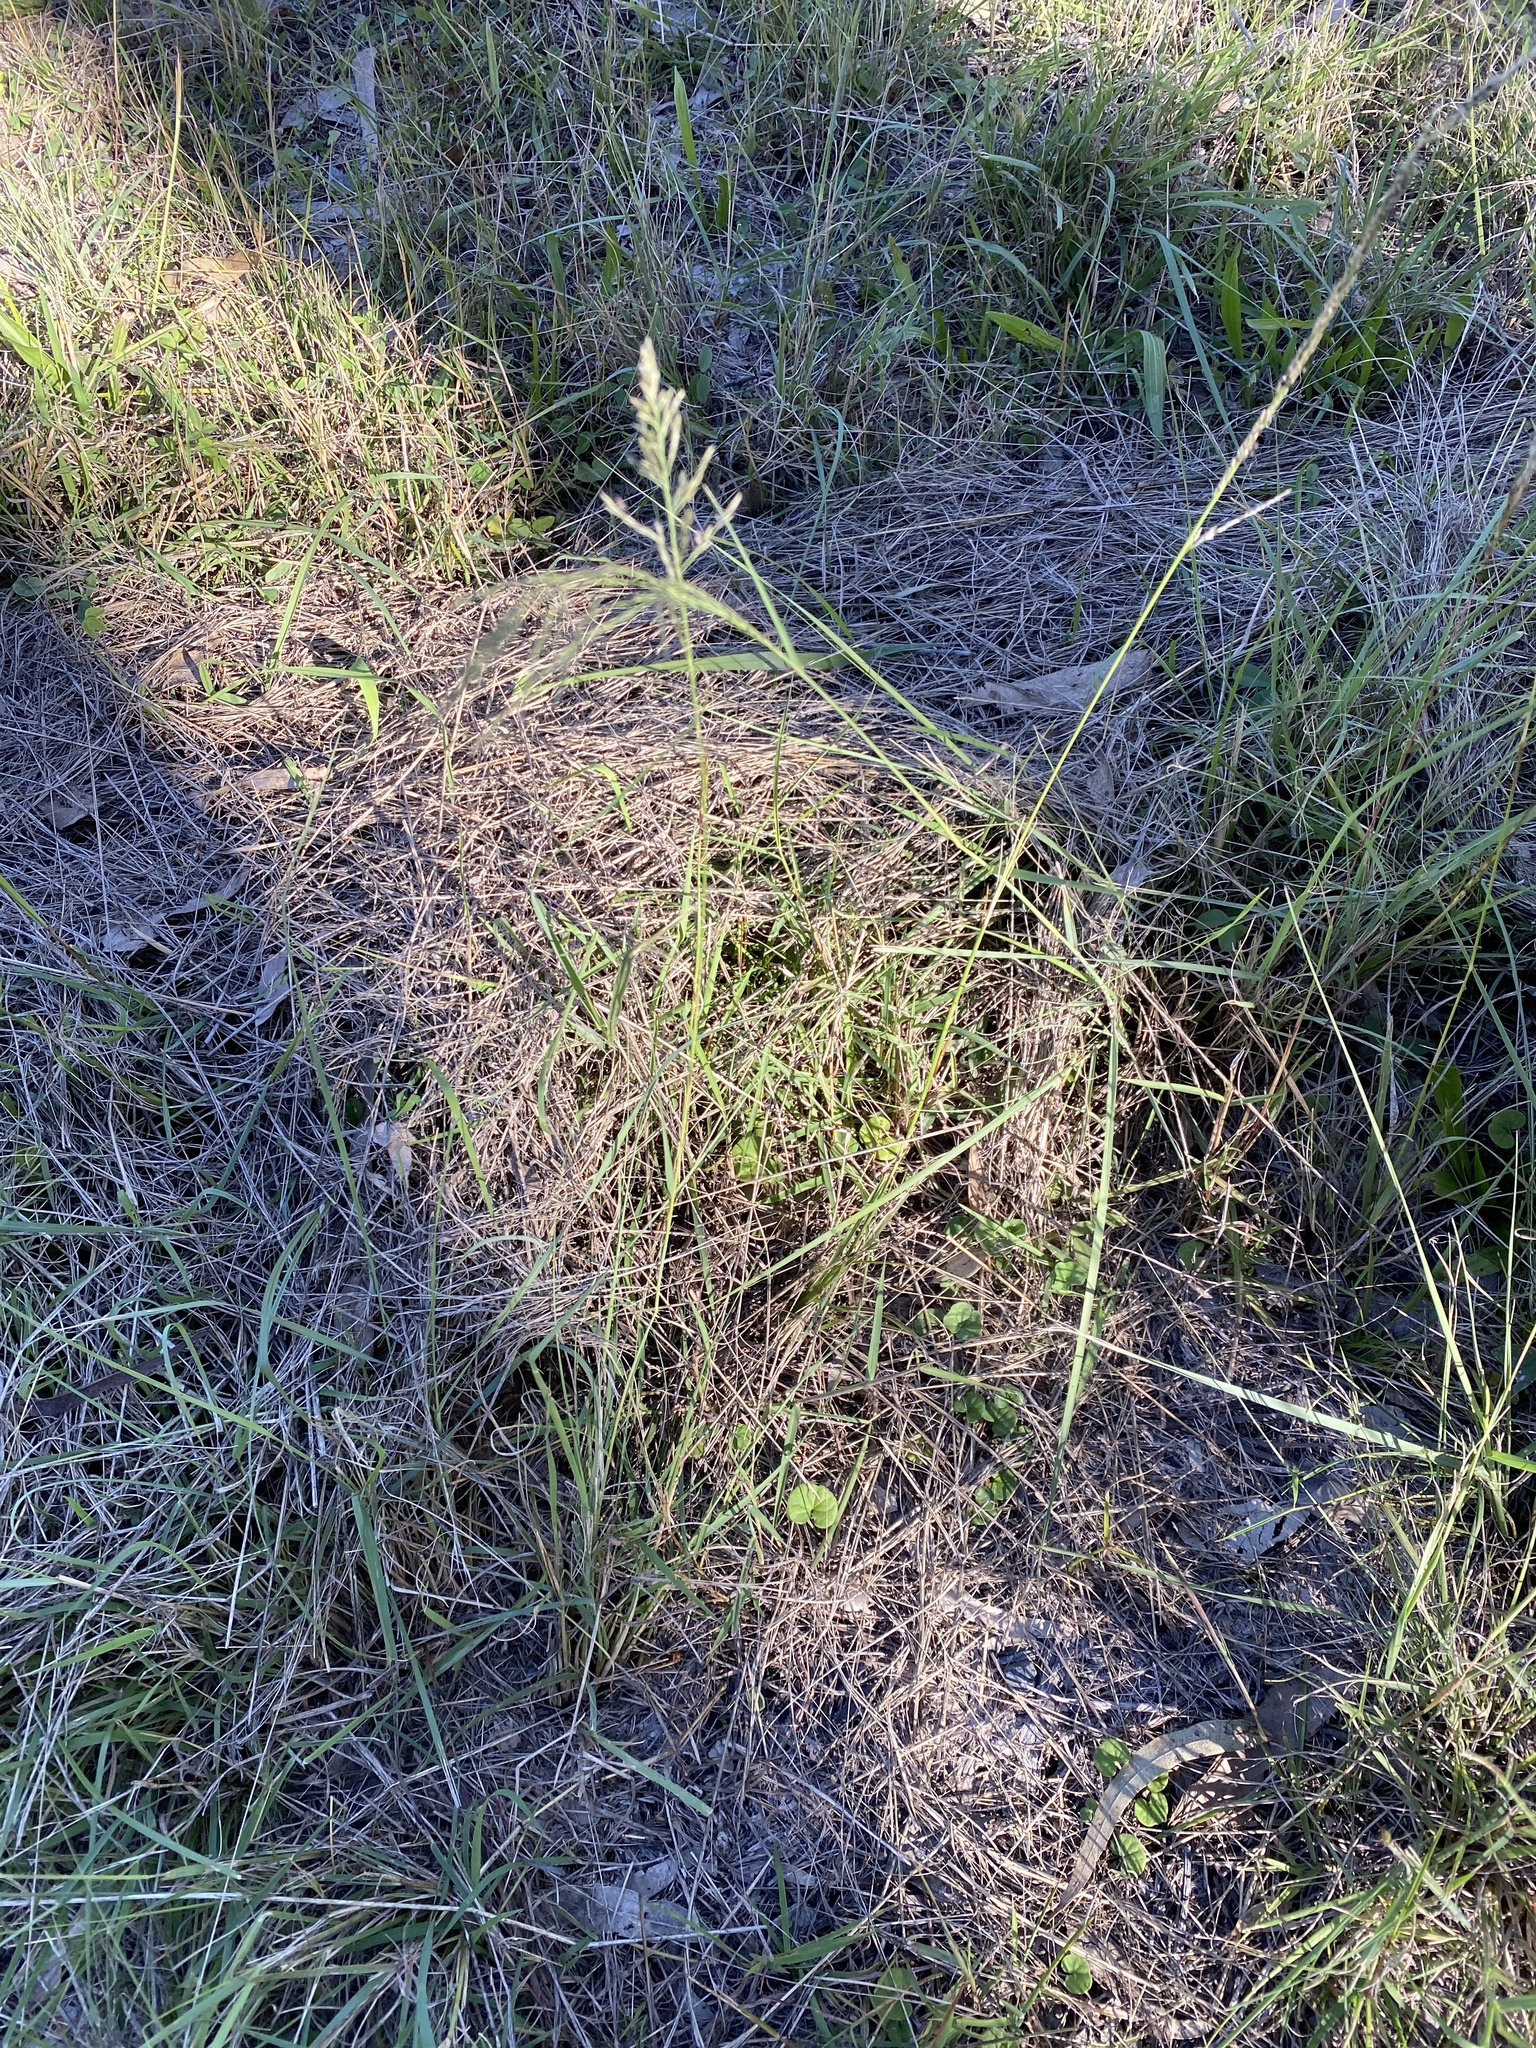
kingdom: Plantae
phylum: Tracheophyta
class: Liliopsida
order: Poales
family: Poaceae
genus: Diplachne
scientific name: Diplachne fusca
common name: Brown beetle grass
